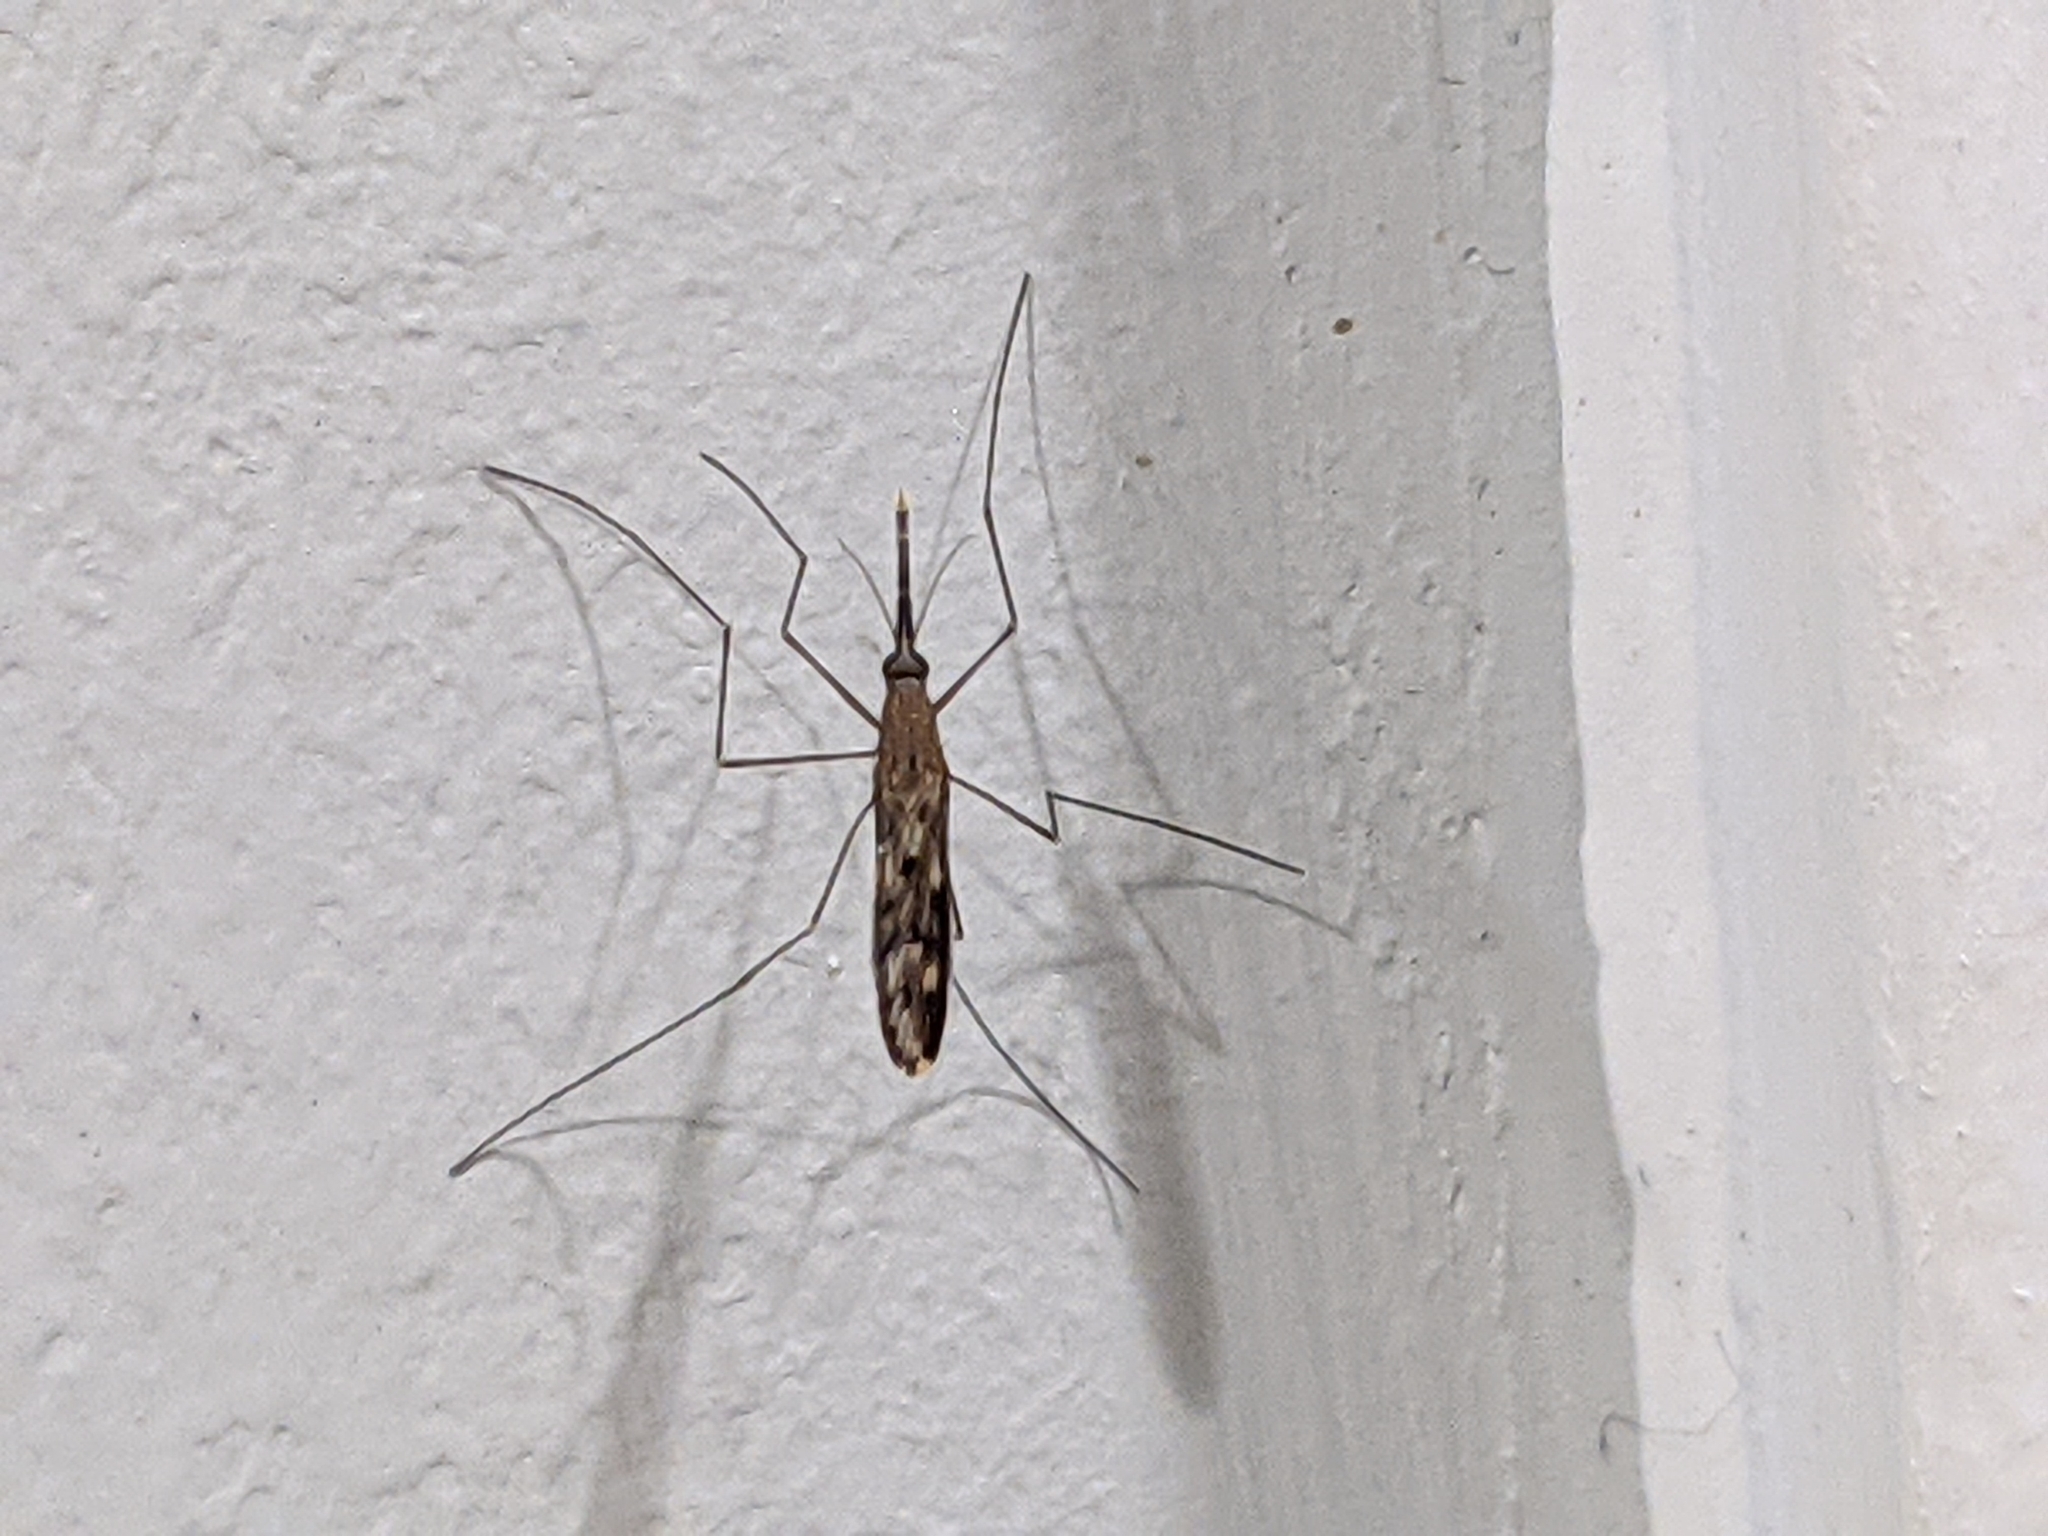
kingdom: Animalia
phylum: Arthropoda
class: Insecta
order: Diptera
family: Culicidae
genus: Anopheles
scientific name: Anopheles
